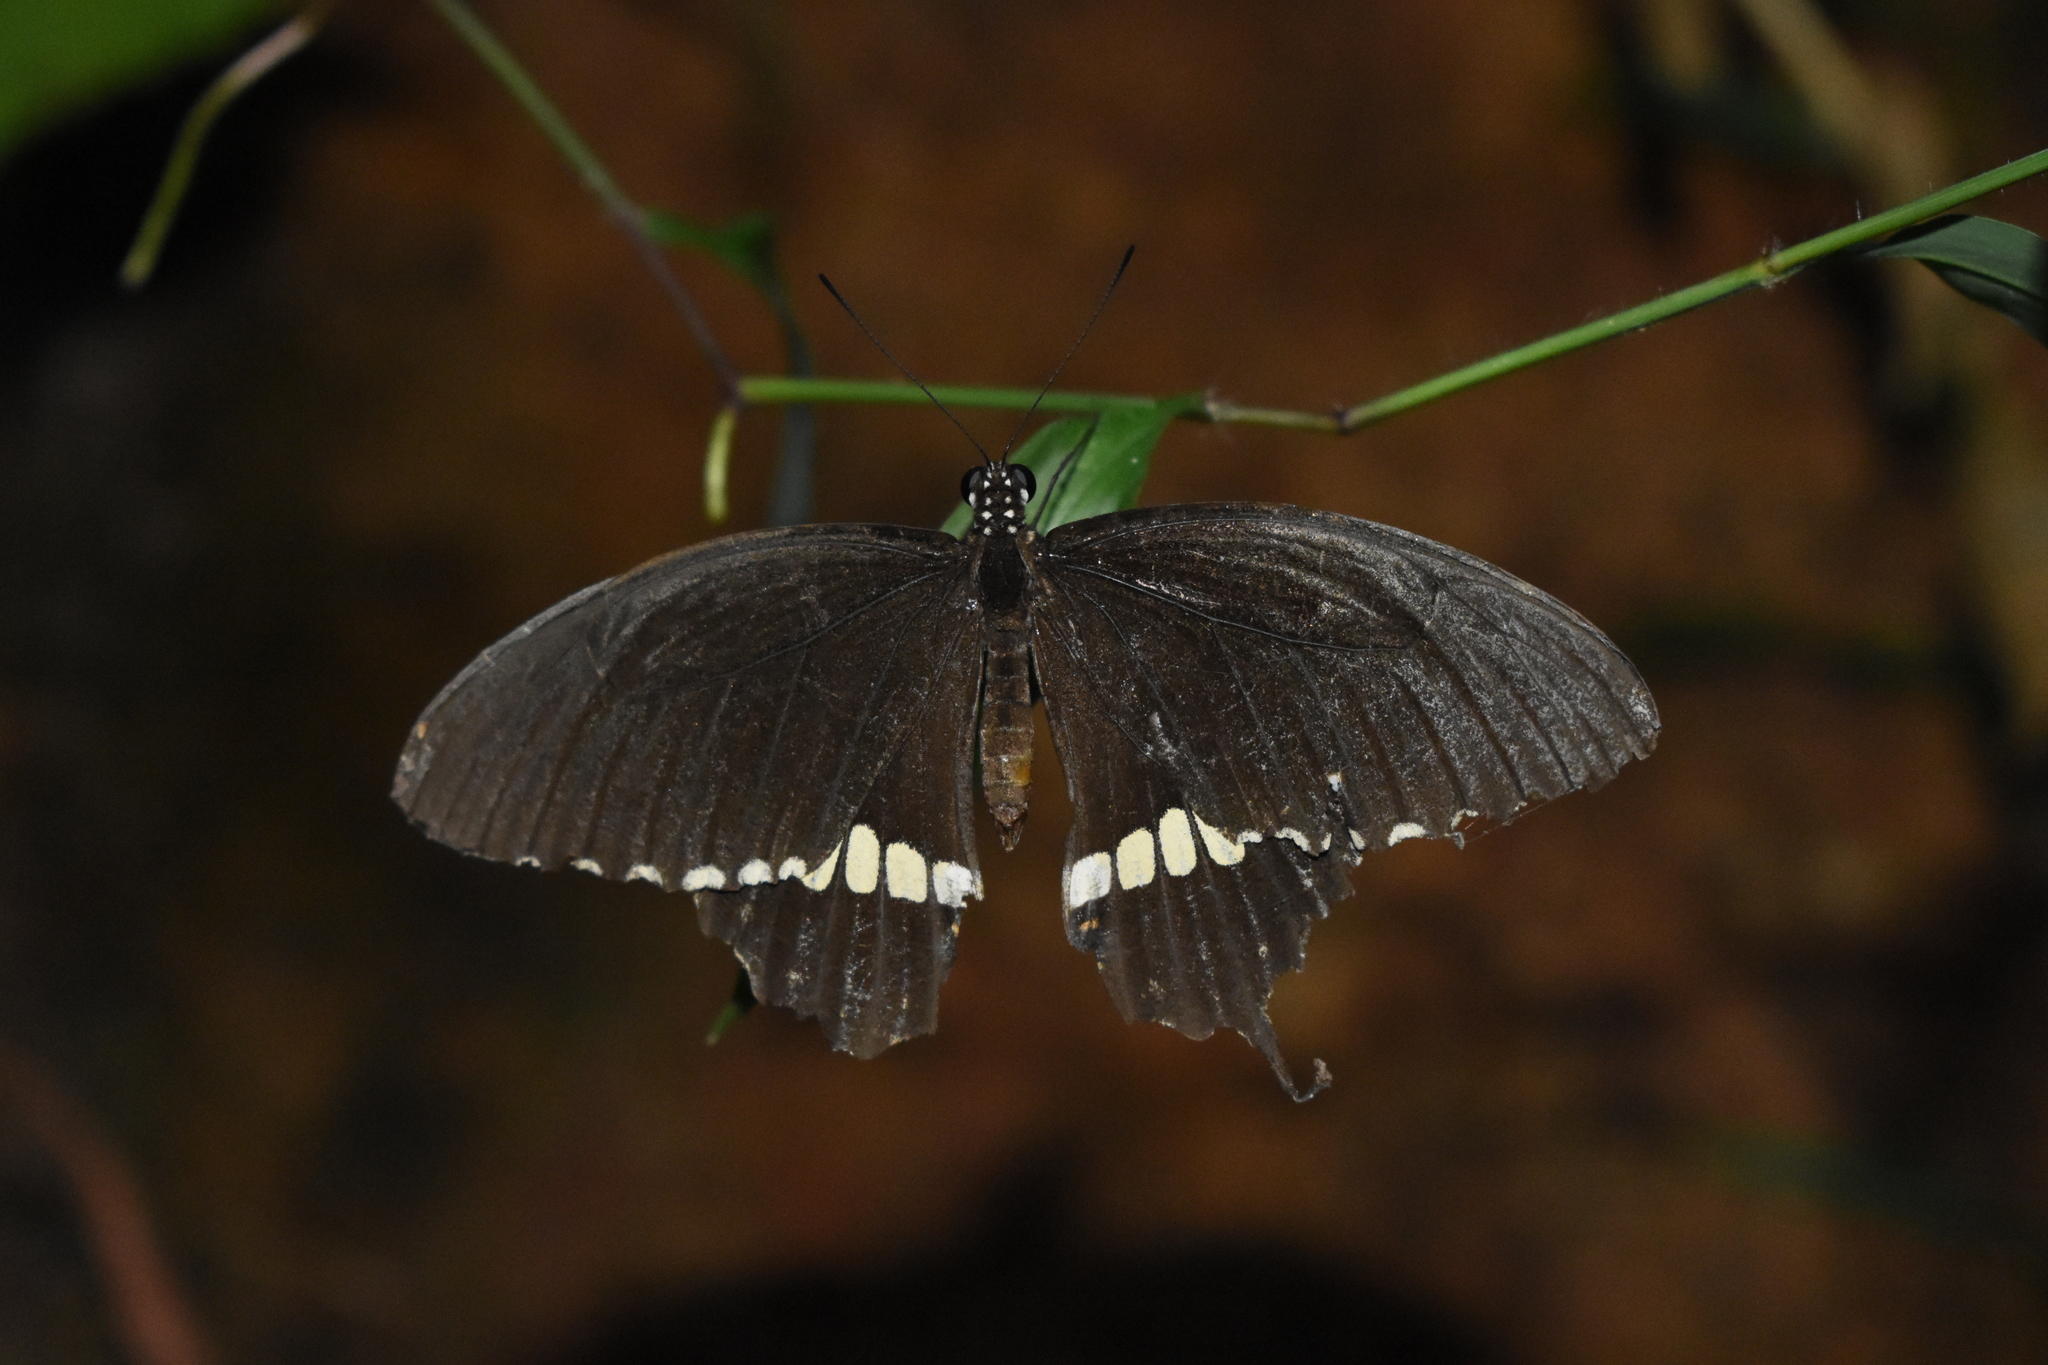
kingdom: Animalia
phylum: Arthropoda
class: Insecta
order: Lepidoptera
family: Papilionidae
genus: Papilio
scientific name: Papilio polytes
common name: Common mormon
